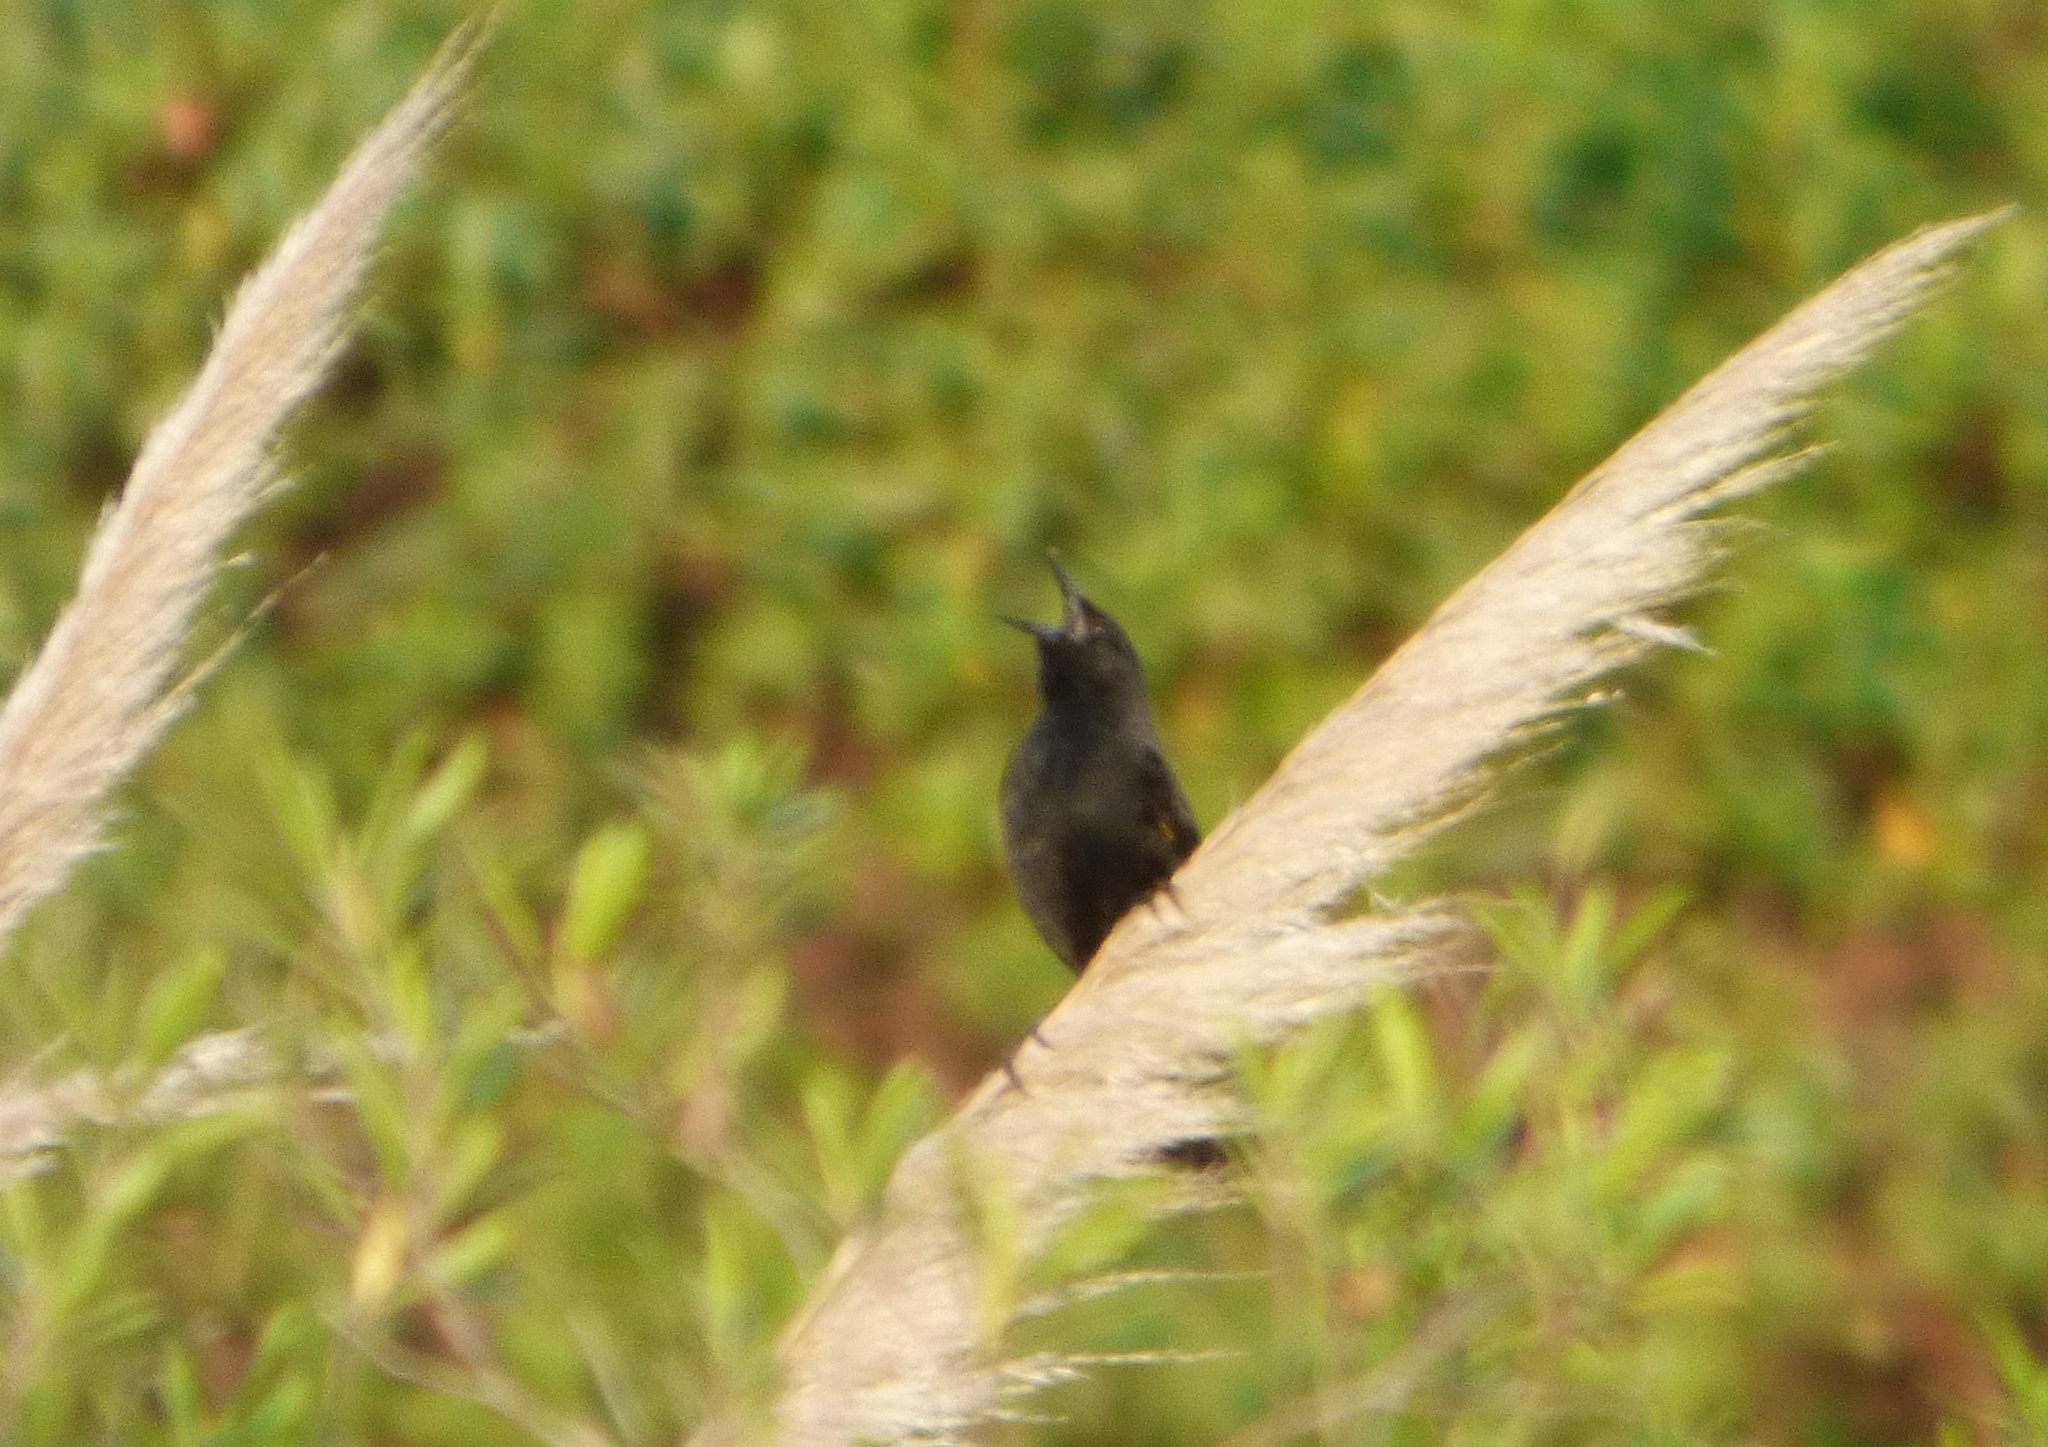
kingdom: Animalia
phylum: Chordata
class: Aves
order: Passeriformes
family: Icteridae
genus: Agelasticus
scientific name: Agelasticus thilius
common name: Yellow-winged blackbird
